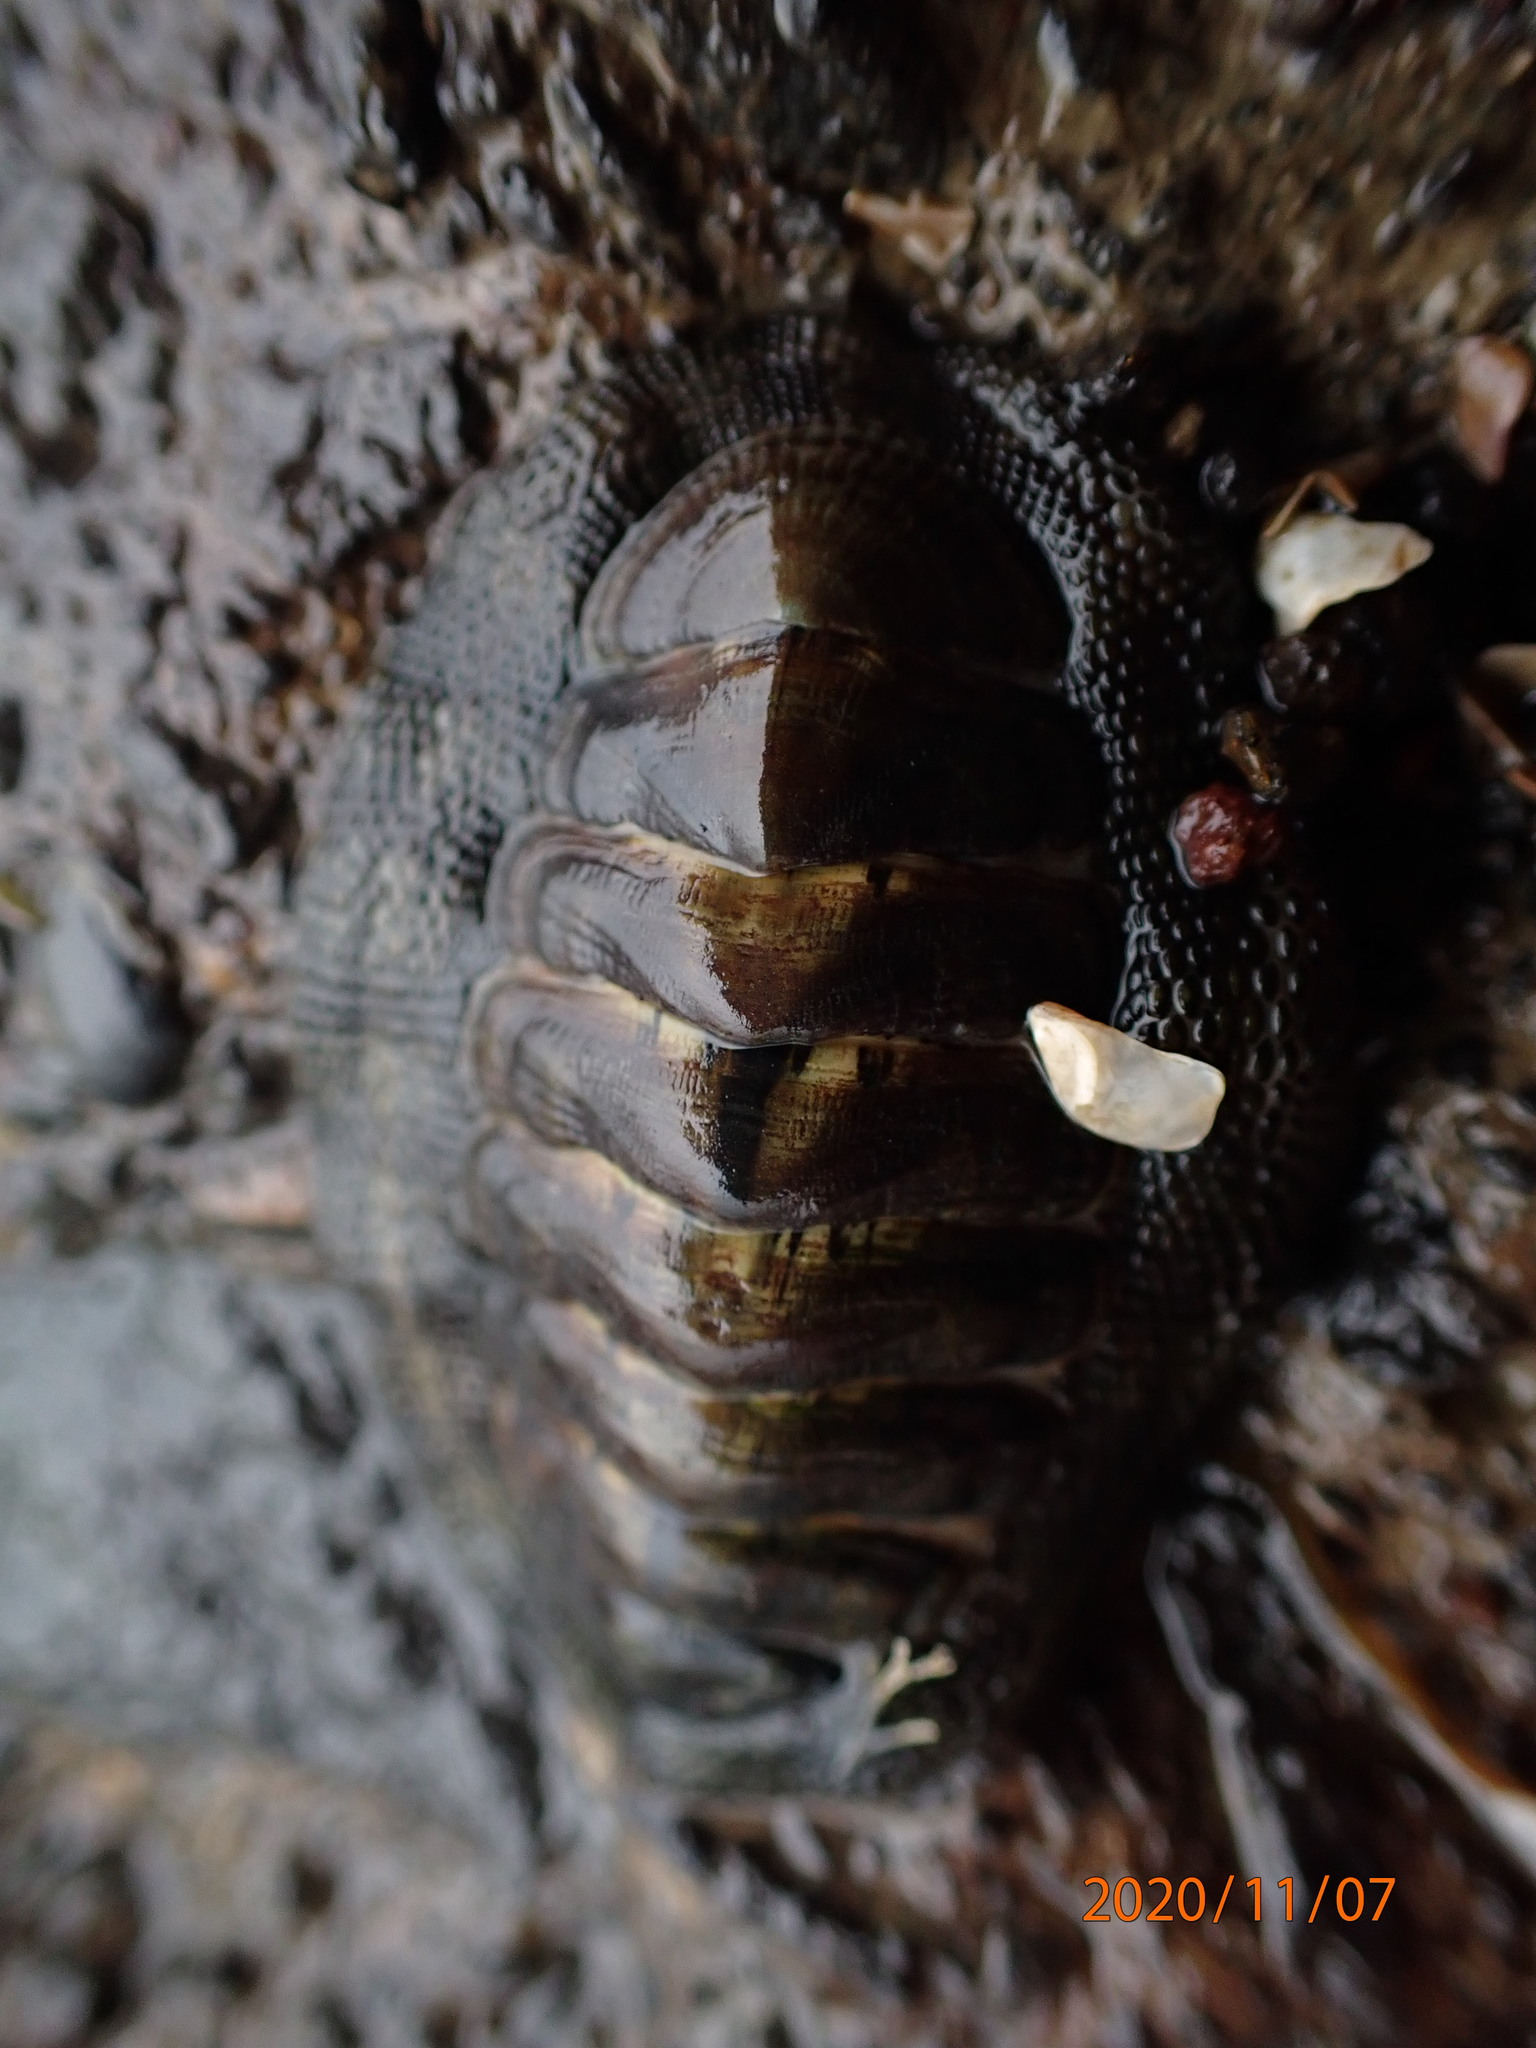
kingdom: Animalia
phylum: Mollusca
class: Polyplacophora
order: Chitonida
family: Chitonidae
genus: Sypharochiton
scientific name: Sypharochiton pelliserpentis
